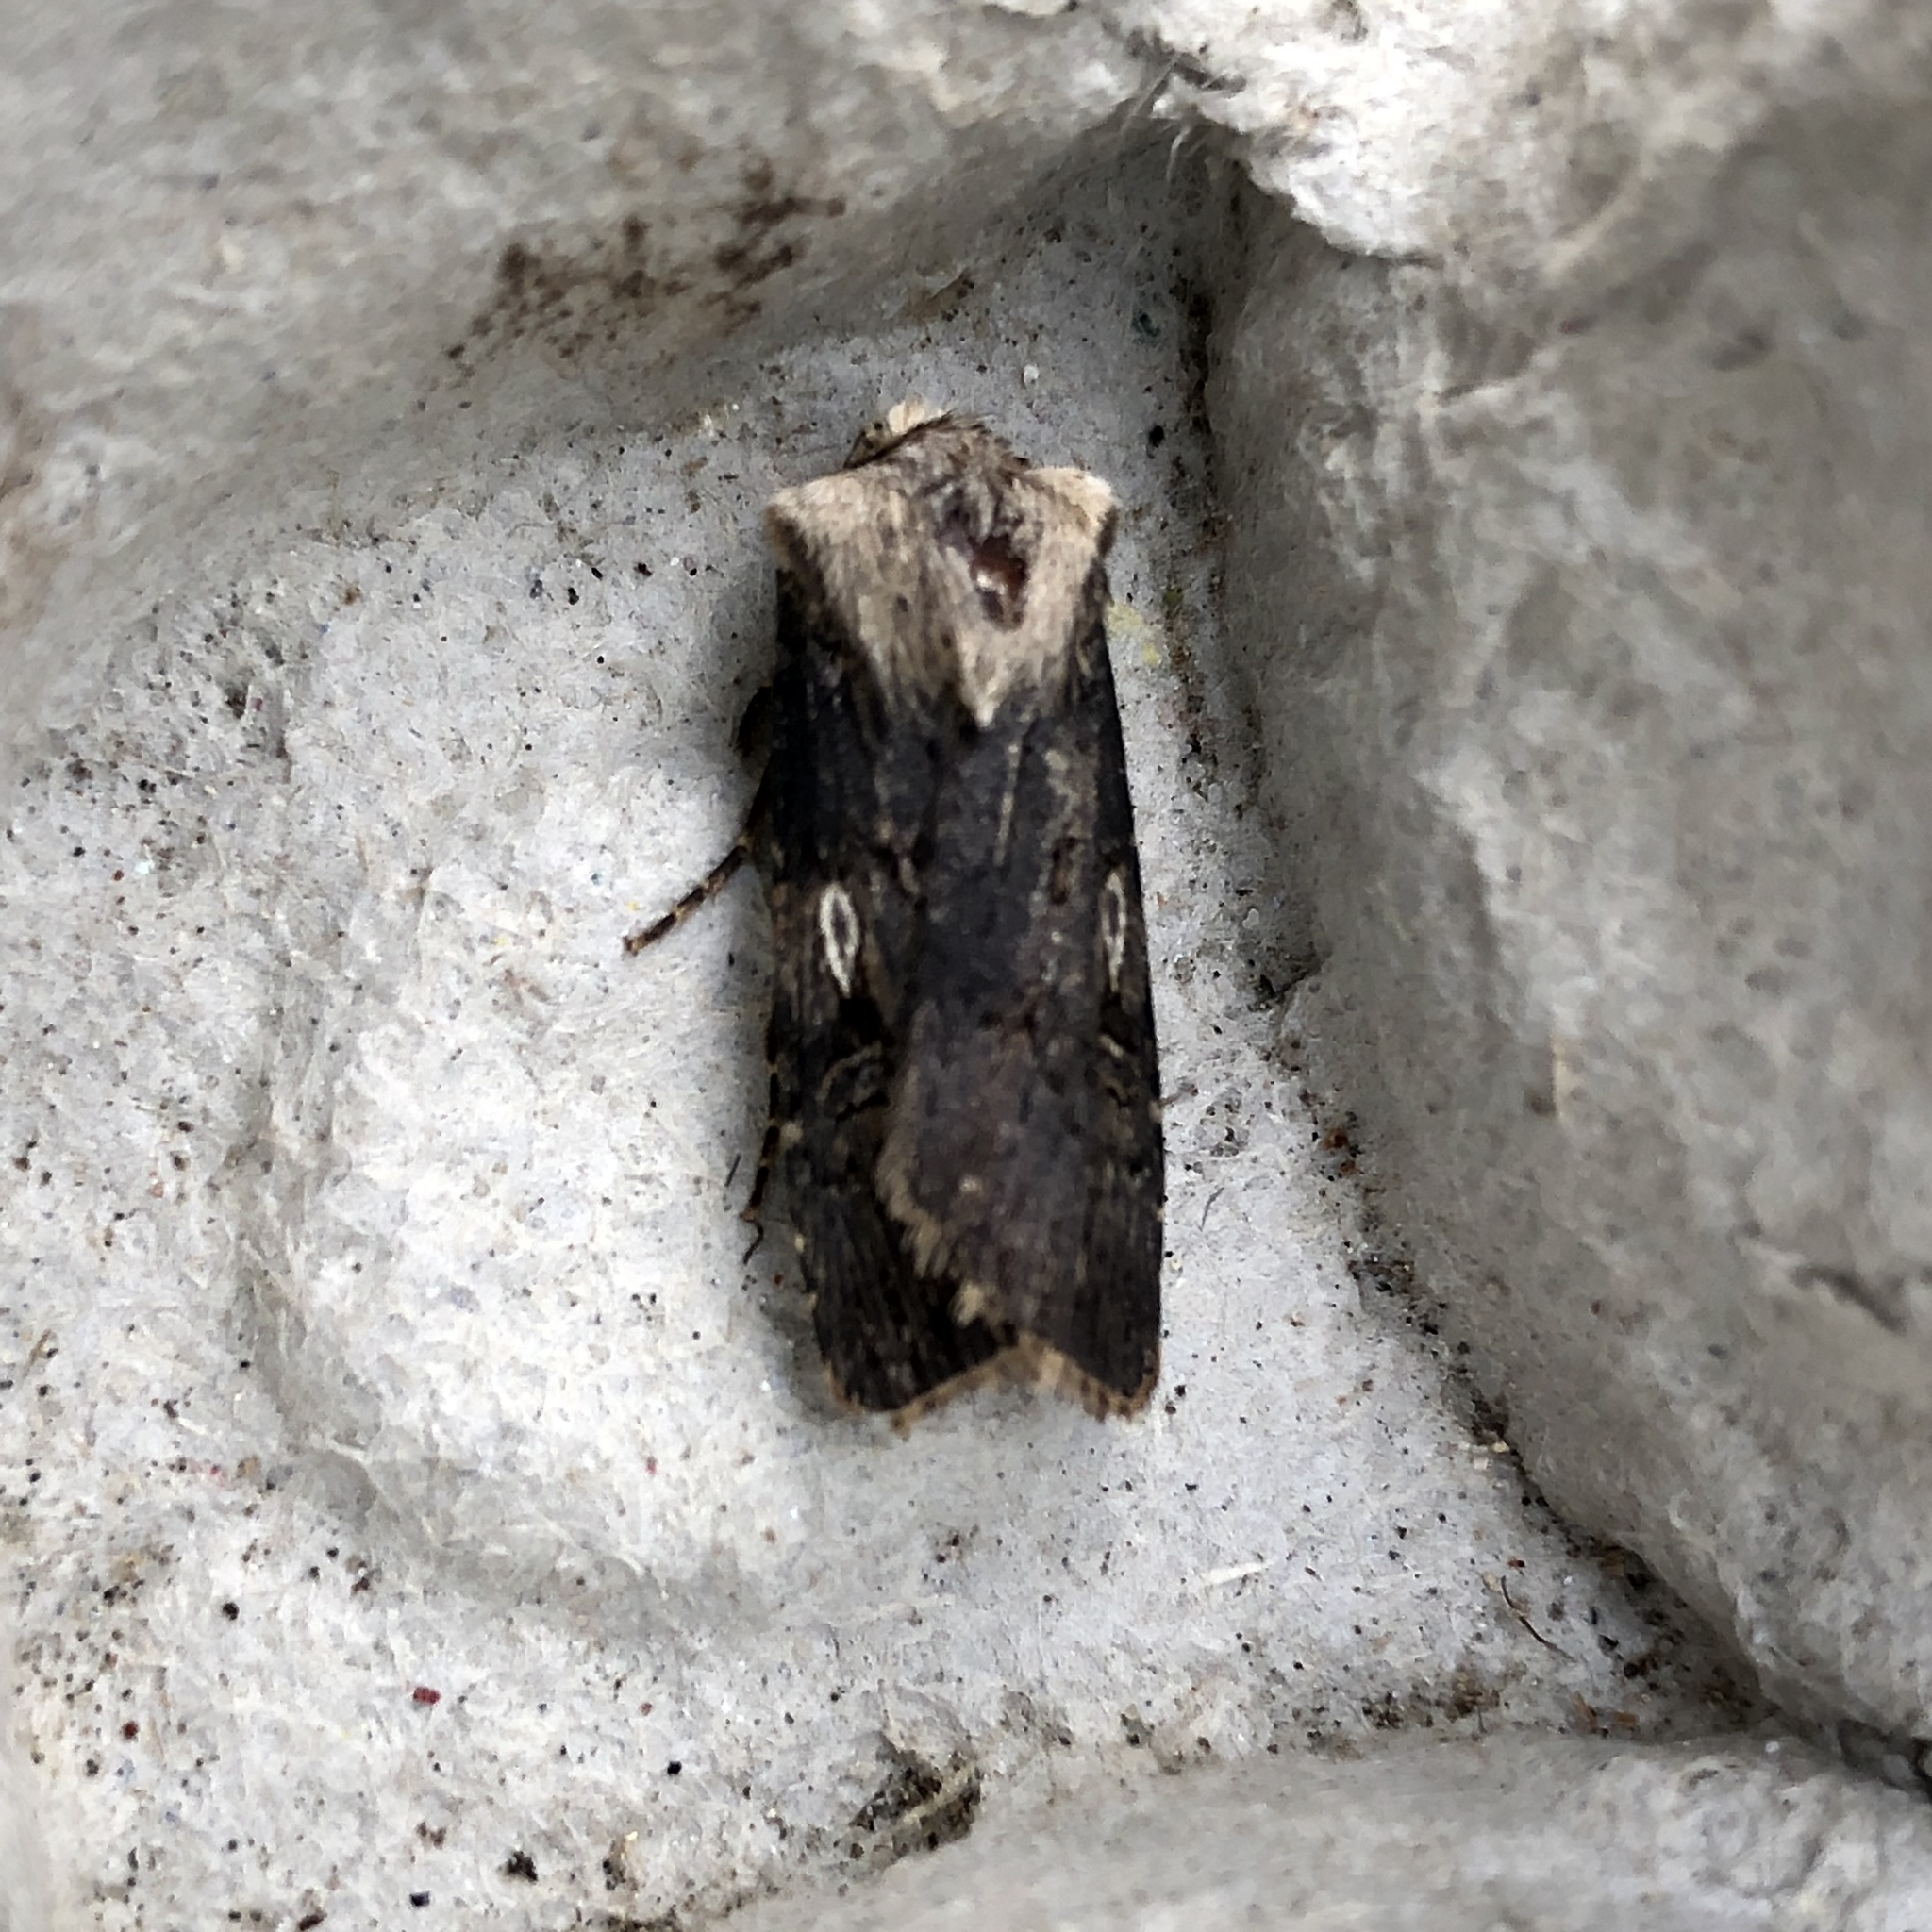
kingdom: Animalia
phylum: Arthropoda
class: Insecta
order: Lepidoptera
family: Noctuidae
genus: Agrotis
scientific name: Agrotis puta
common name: Shuttle-shaped dart
